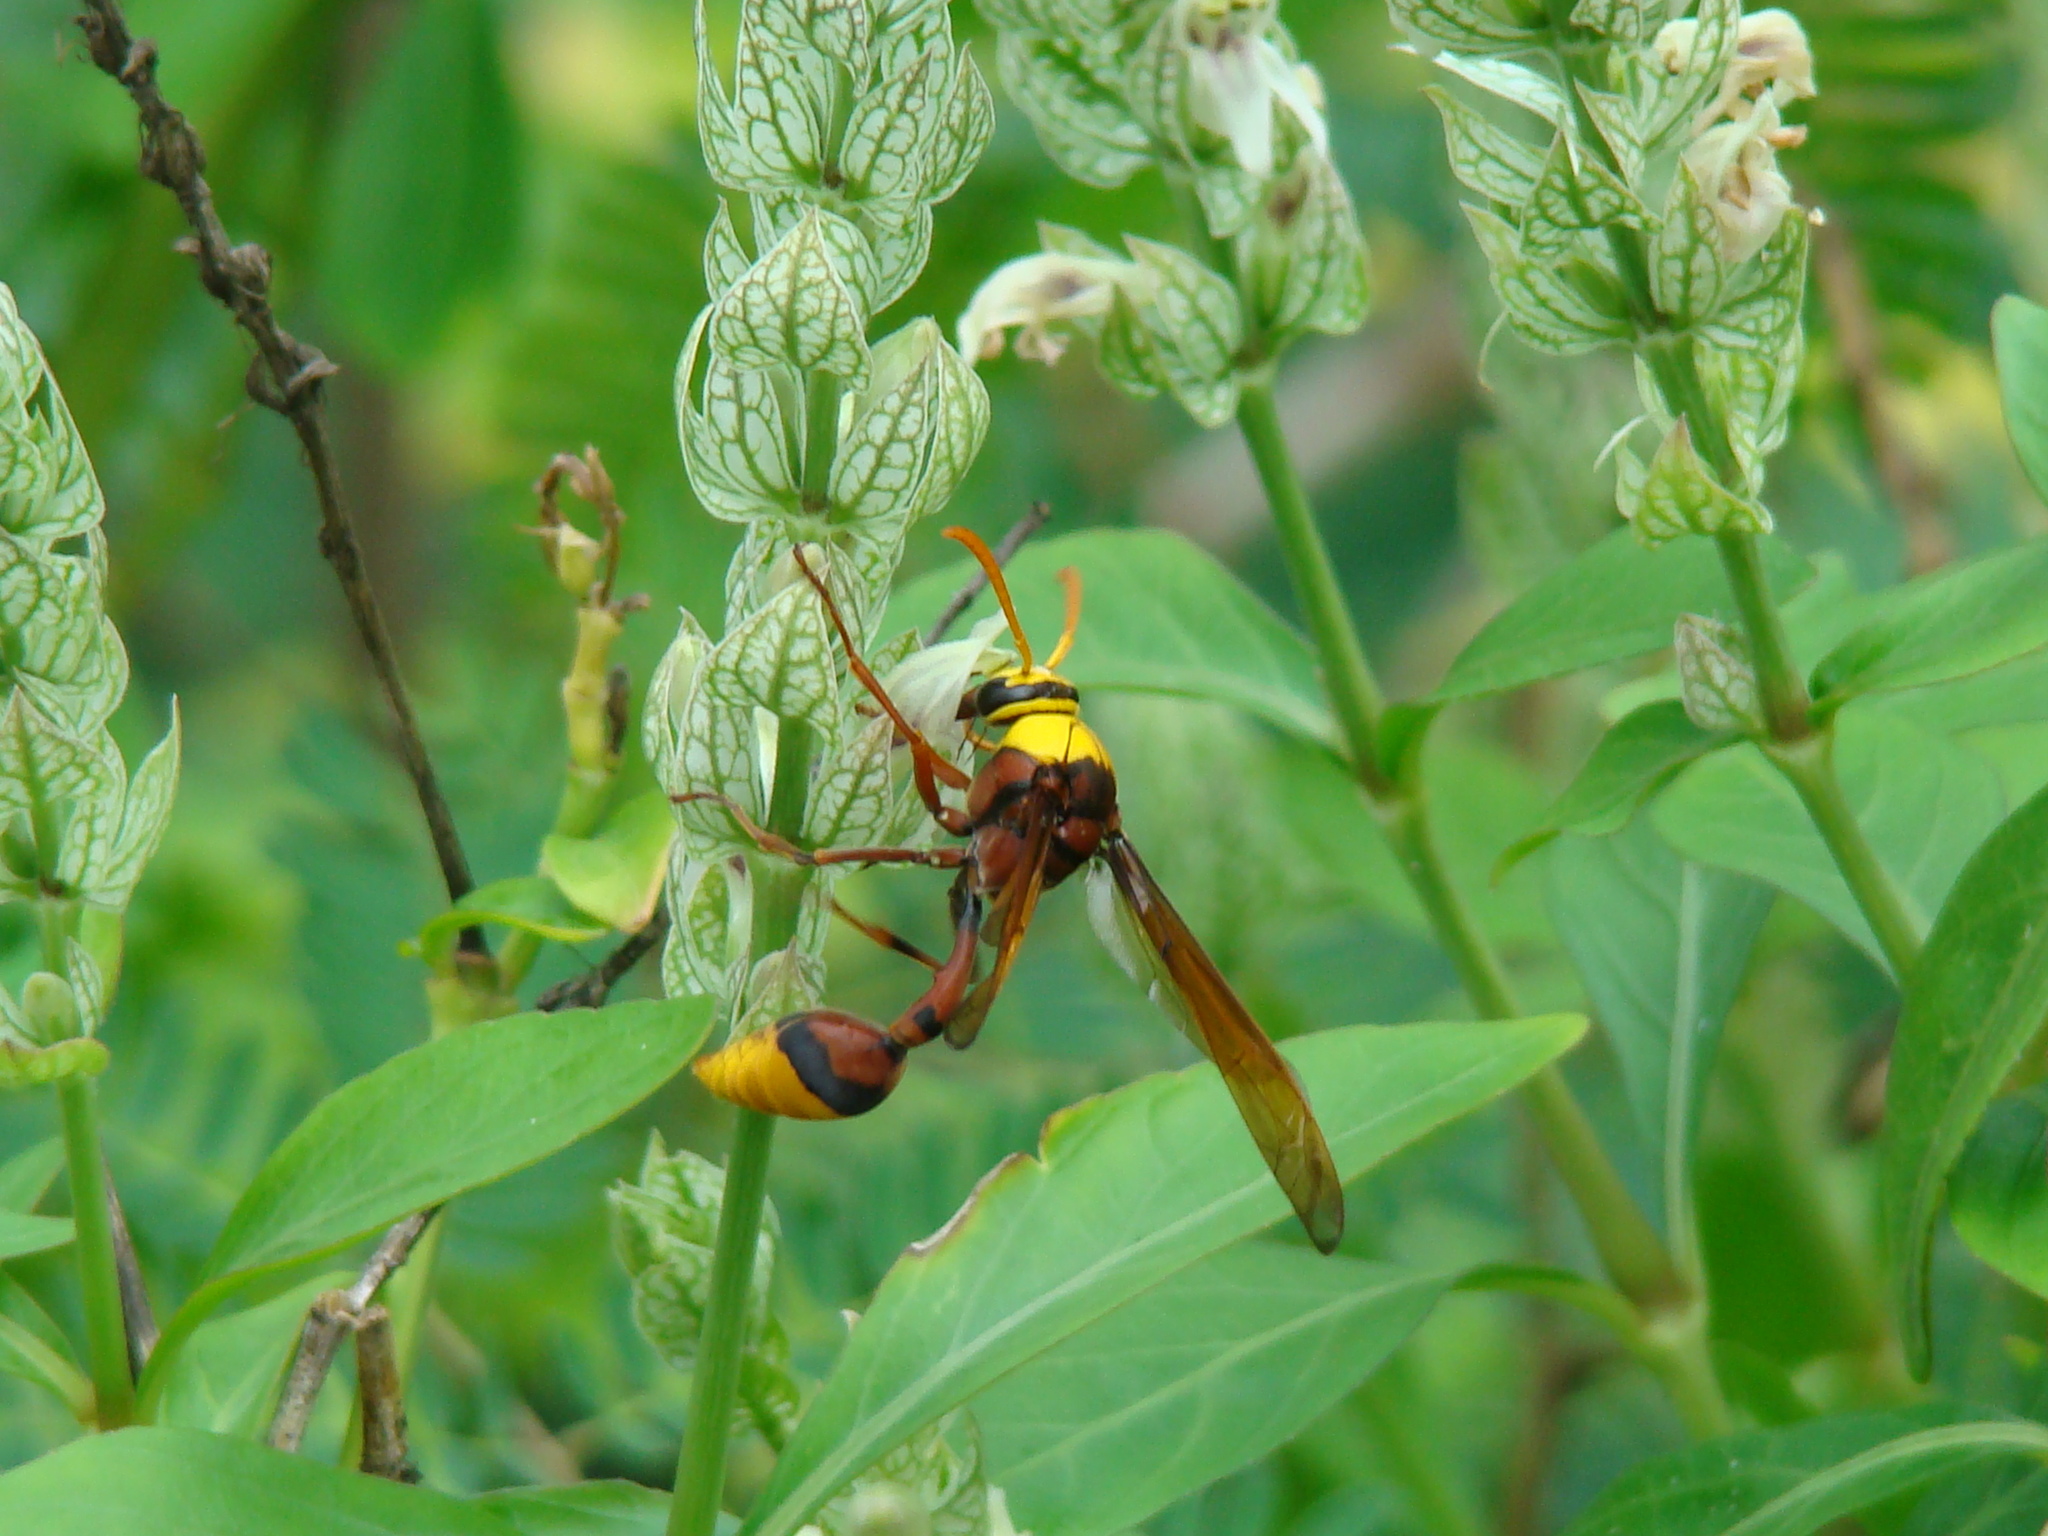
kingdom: Animalia
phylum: Arthropoda
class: Insecta
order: Hymenoptera
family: Eumenidae
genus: Delta
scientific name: Delta pyriforme
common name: Wasp
